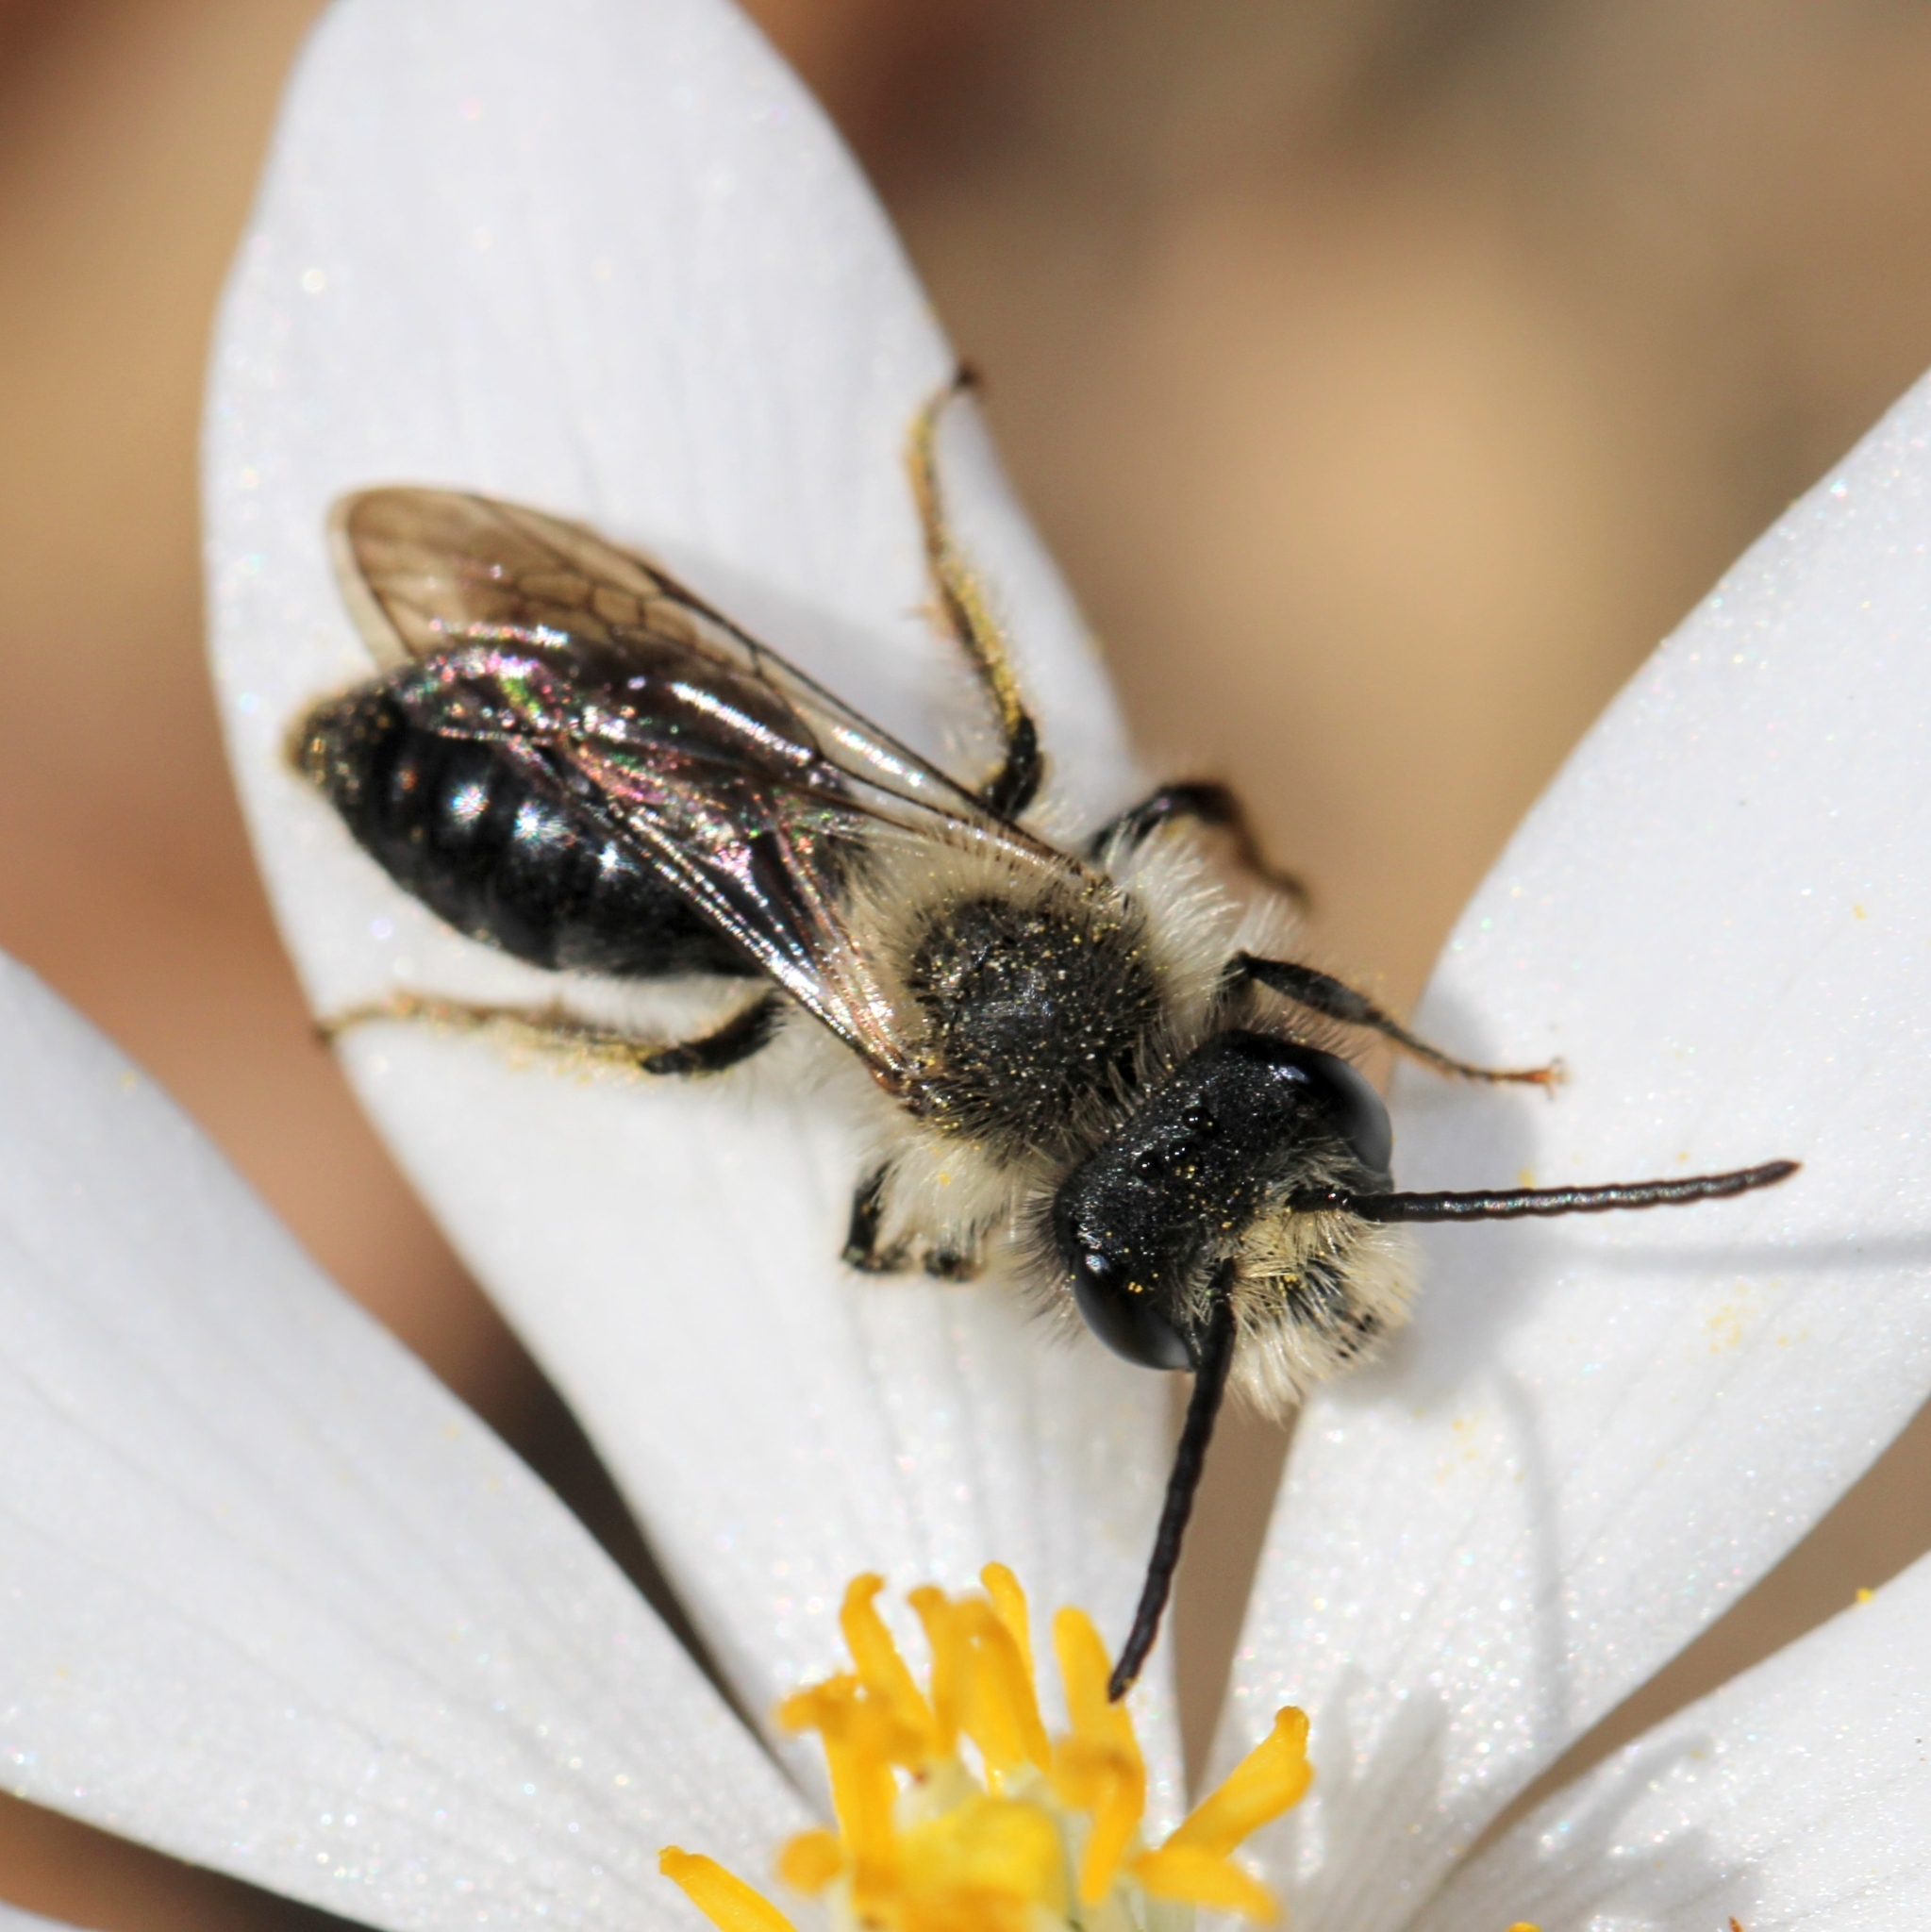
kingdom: Animalia
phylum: Arthropoda
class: Insecta
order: Hymenoptera
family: Andrenidae
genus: Andrena
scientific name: Andrena carlini
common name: Carlin's mining bee
